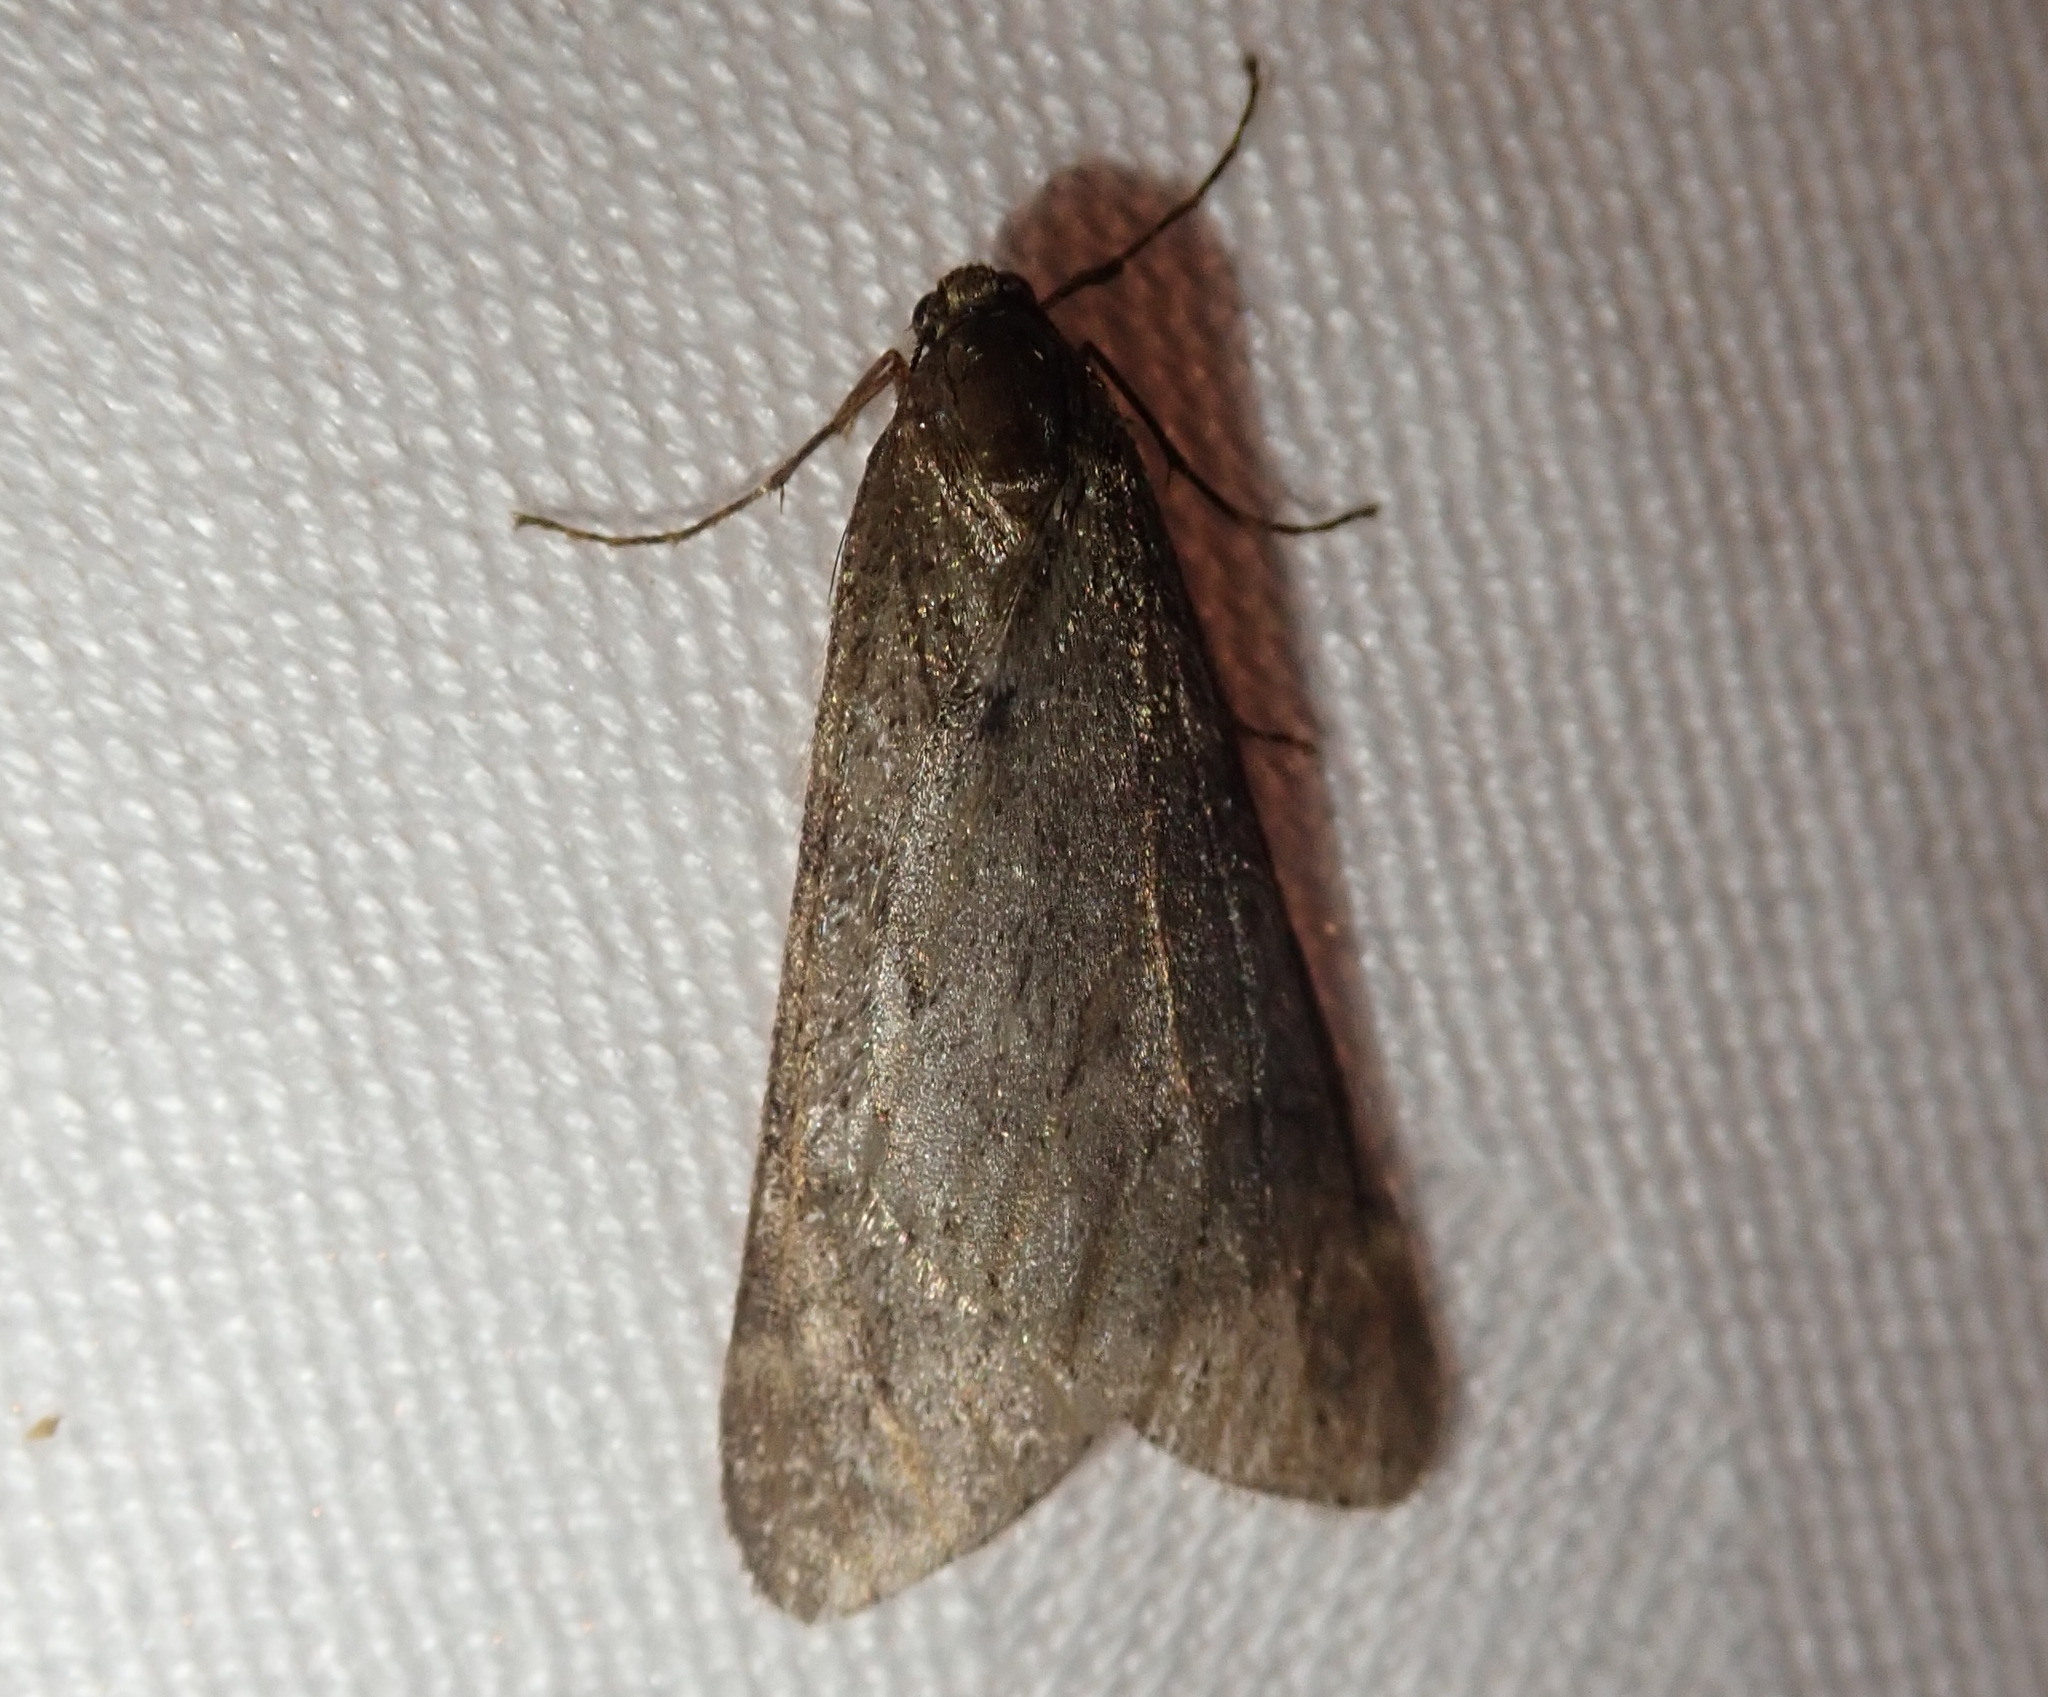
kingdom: Animalia
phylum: Arthropoda
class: Insecta
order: Lepidoptera
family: Geometridae
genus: Alsophila
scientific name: Alsophila aescularia
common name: March moth
